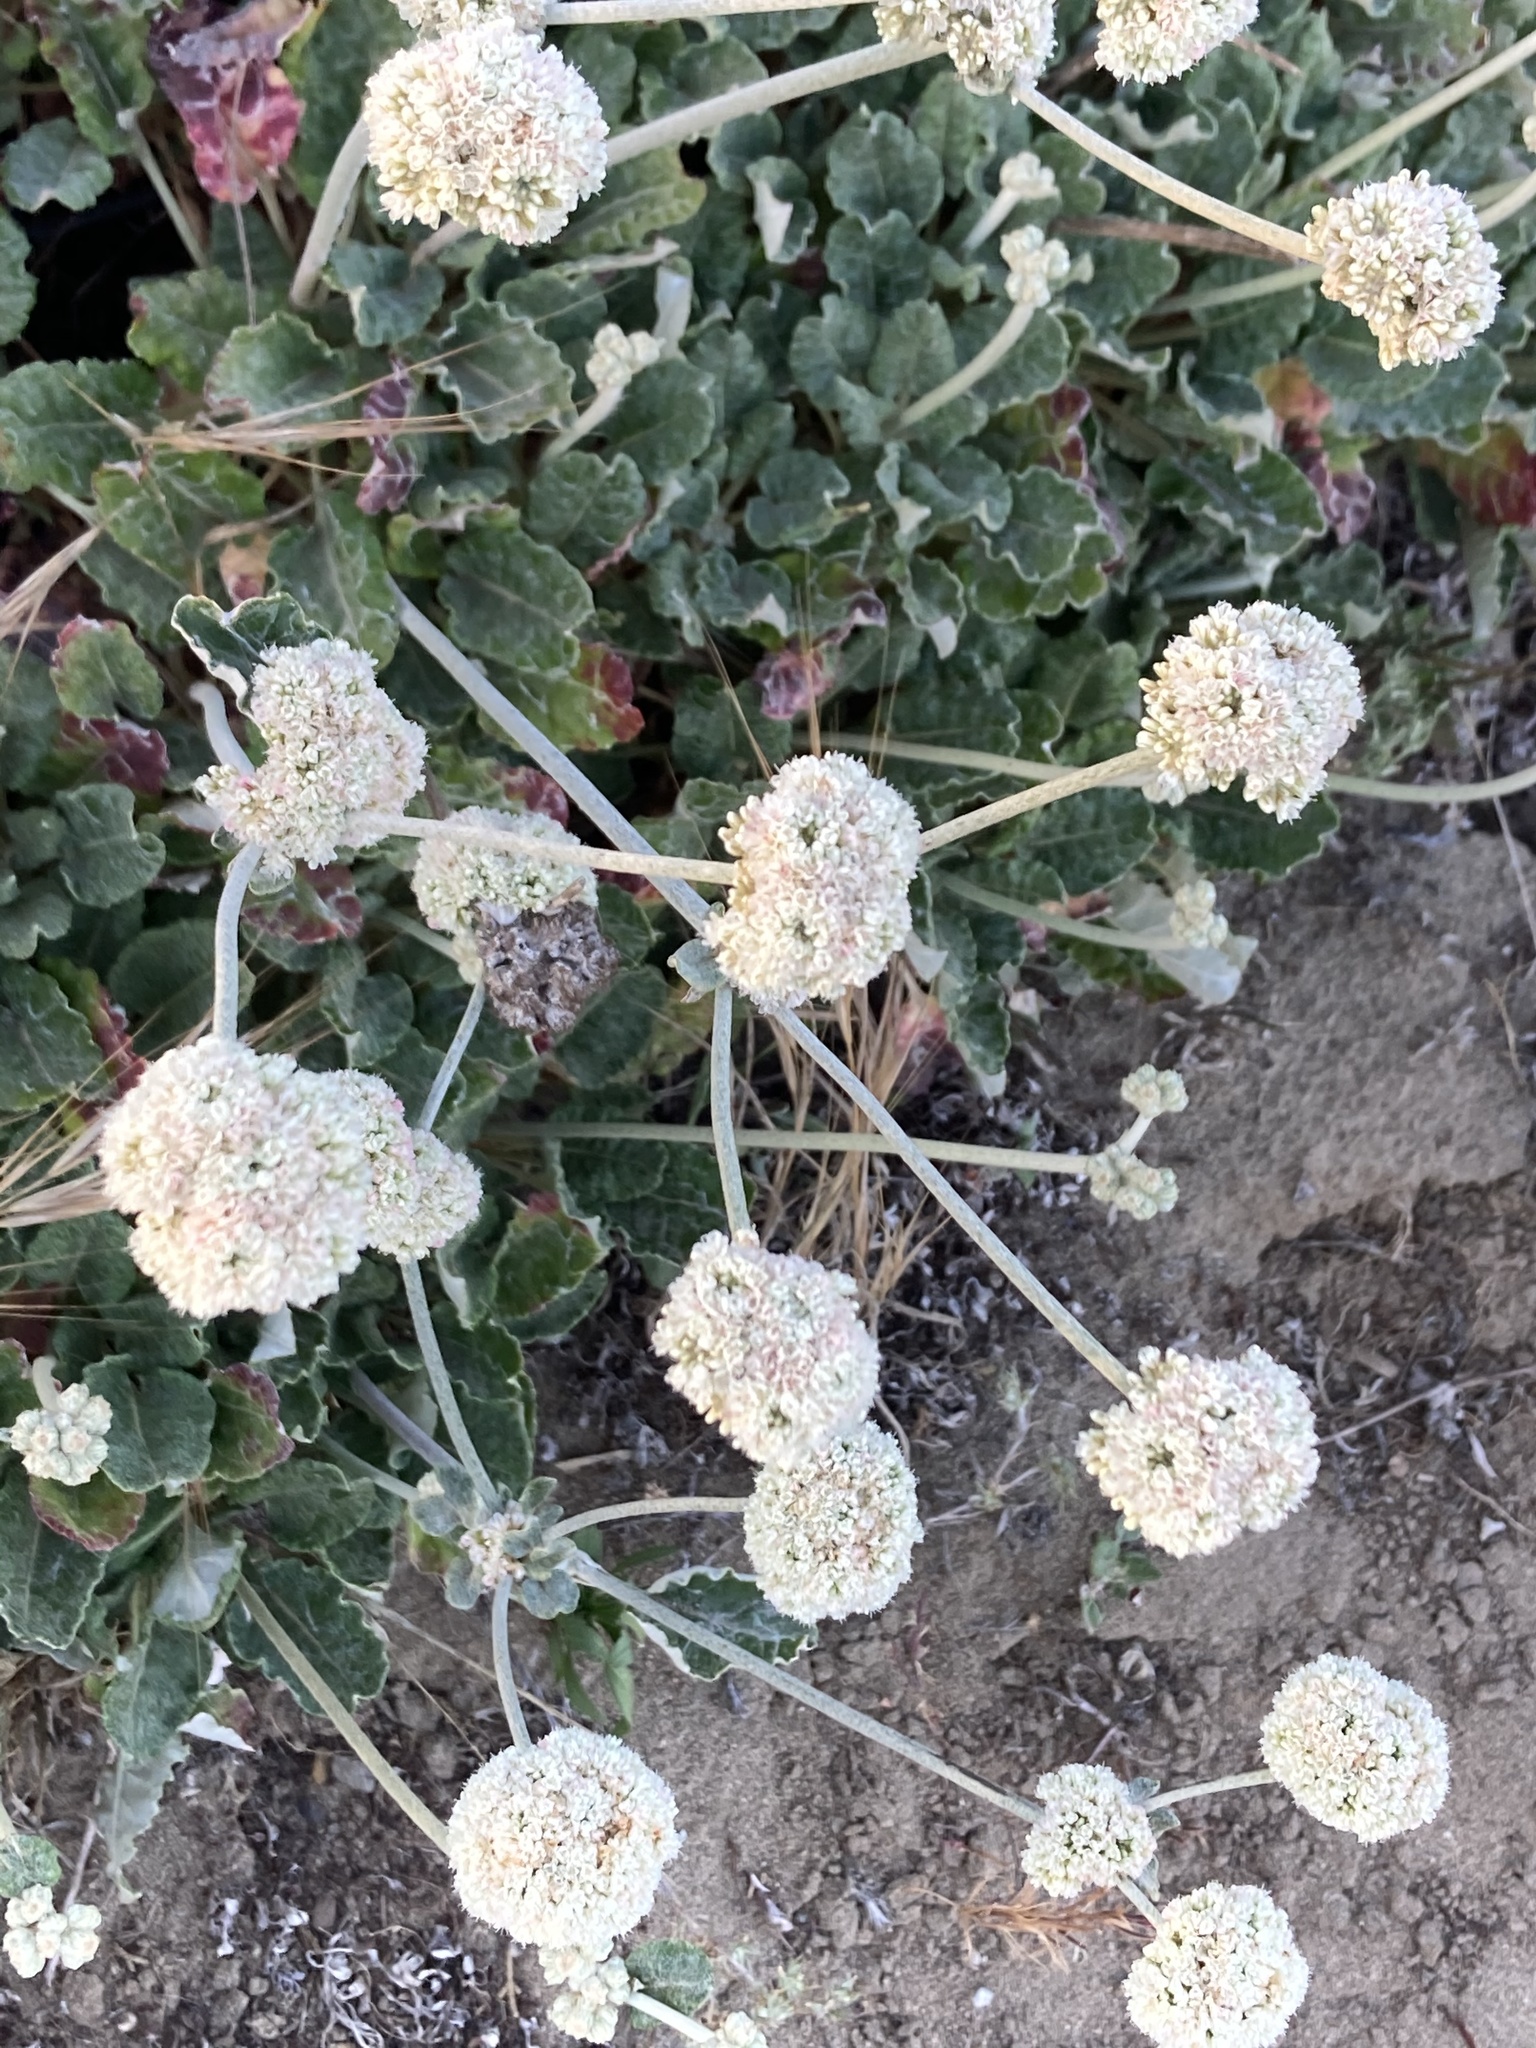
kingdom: Plantae
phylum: Tracheophyta
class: Magnoliopsida
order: Caryophyllales
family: Polygonaceae
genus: Eriogonum
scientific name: Eriogonum latifolium
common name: Seaside wild buckwheat
